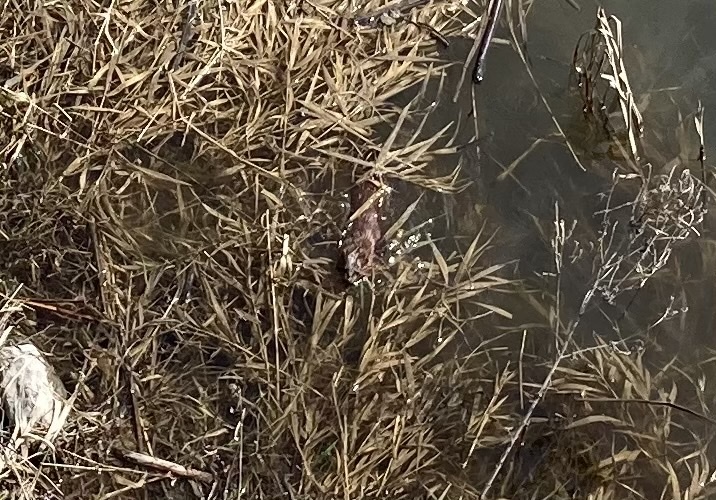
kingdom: Animalia
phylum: Chordata
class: Mammalia
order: Carnivora
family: Mustelidae
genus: Mustela
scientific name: Mustela
